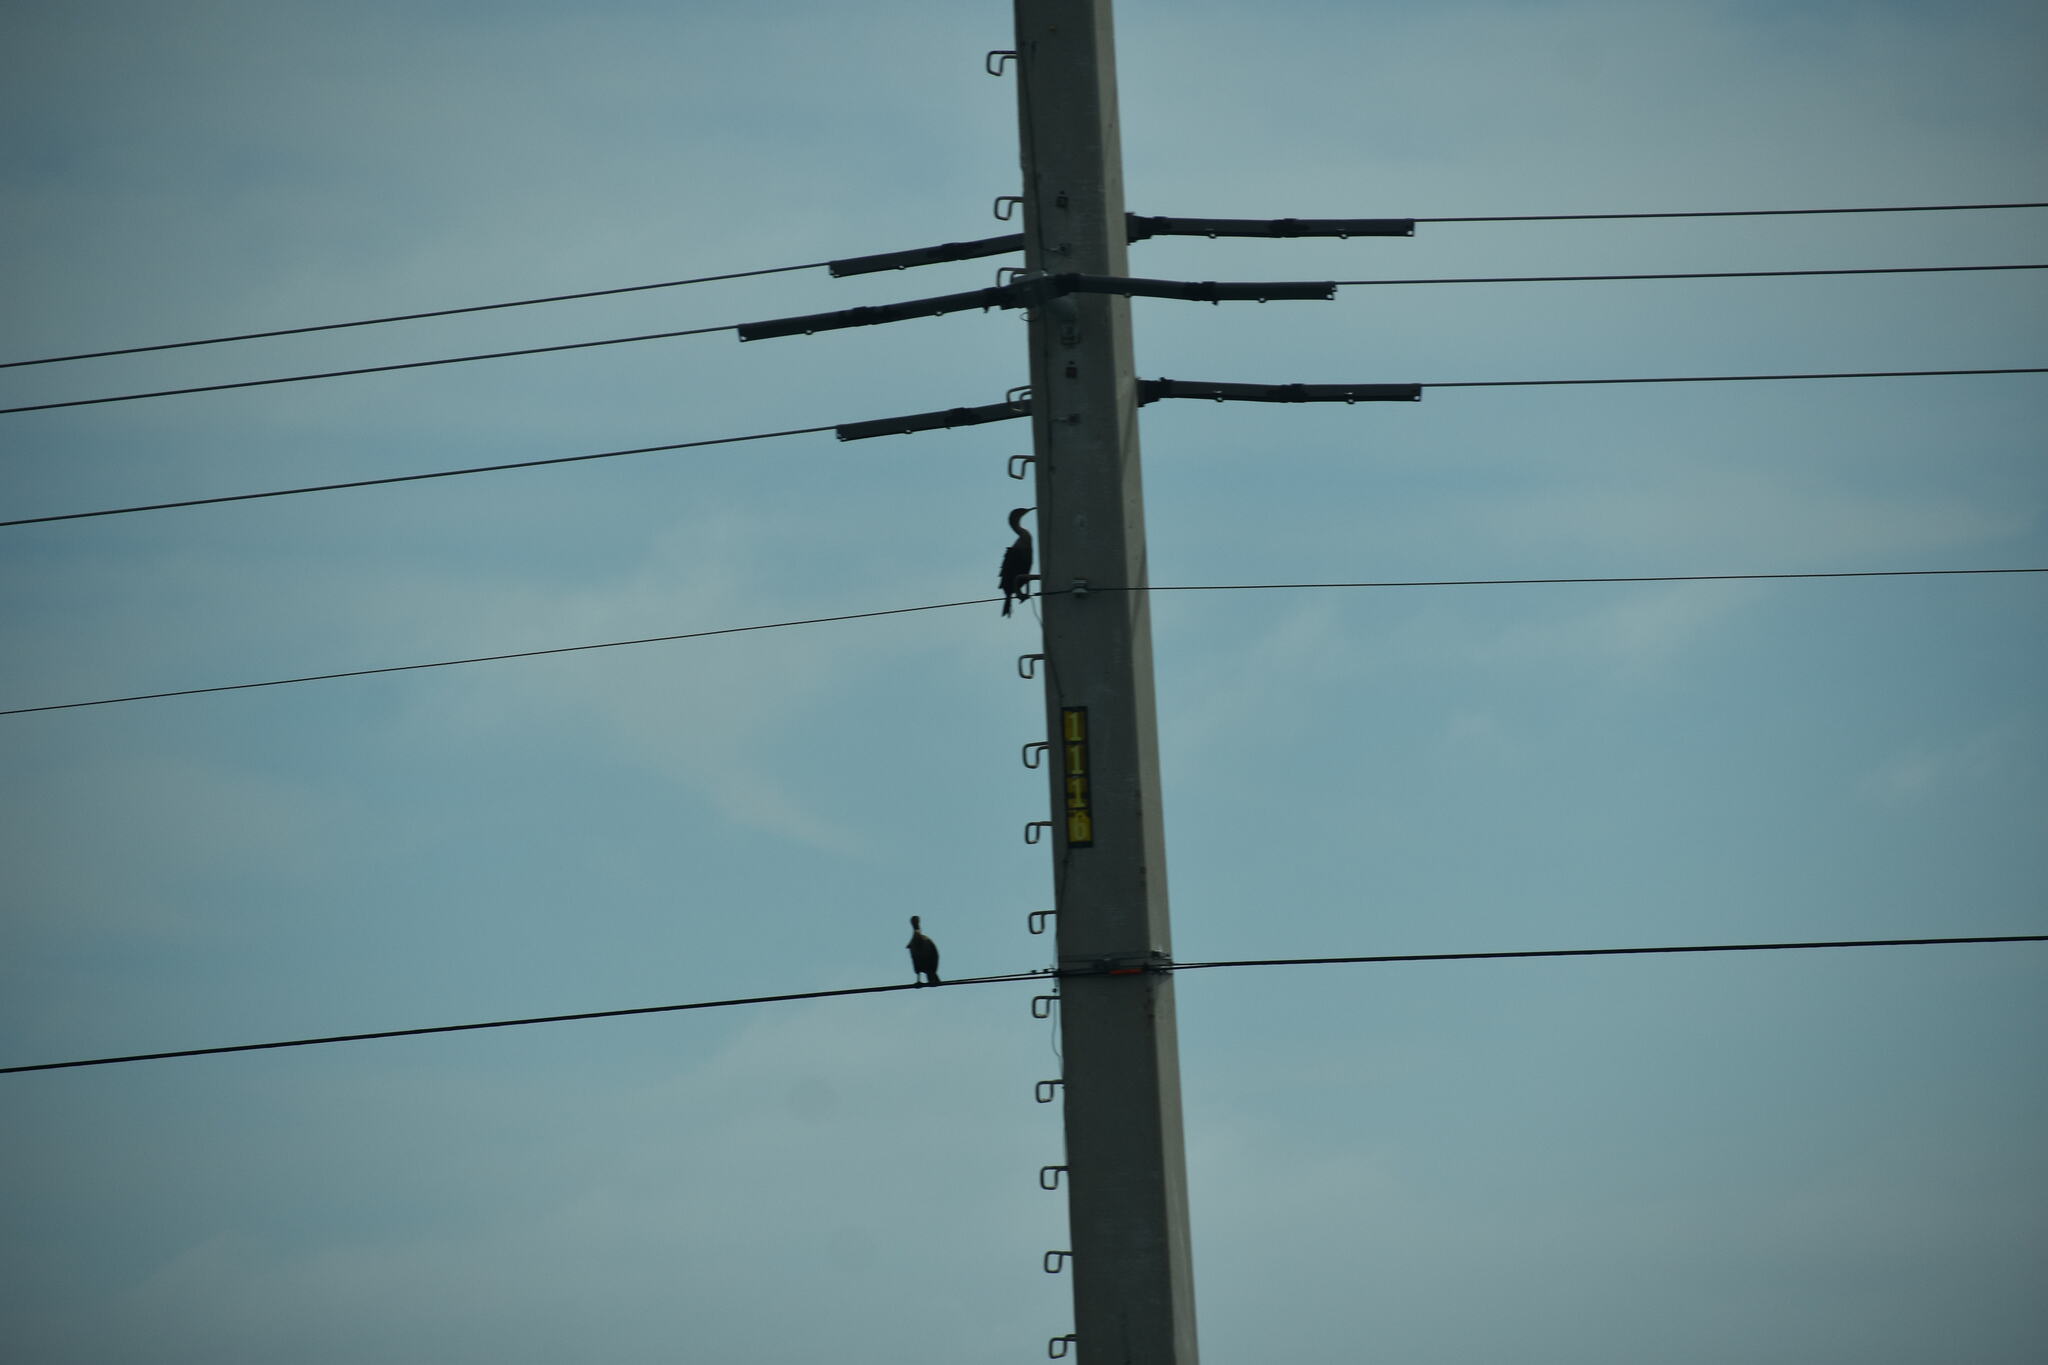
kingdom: Animalia
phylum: Chordata
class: Aves
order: Suliformes
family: Phalacrocoracidae
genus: Phalacrocorax
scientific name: Phalacrocorax auritus
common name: Double-crested cormorant
